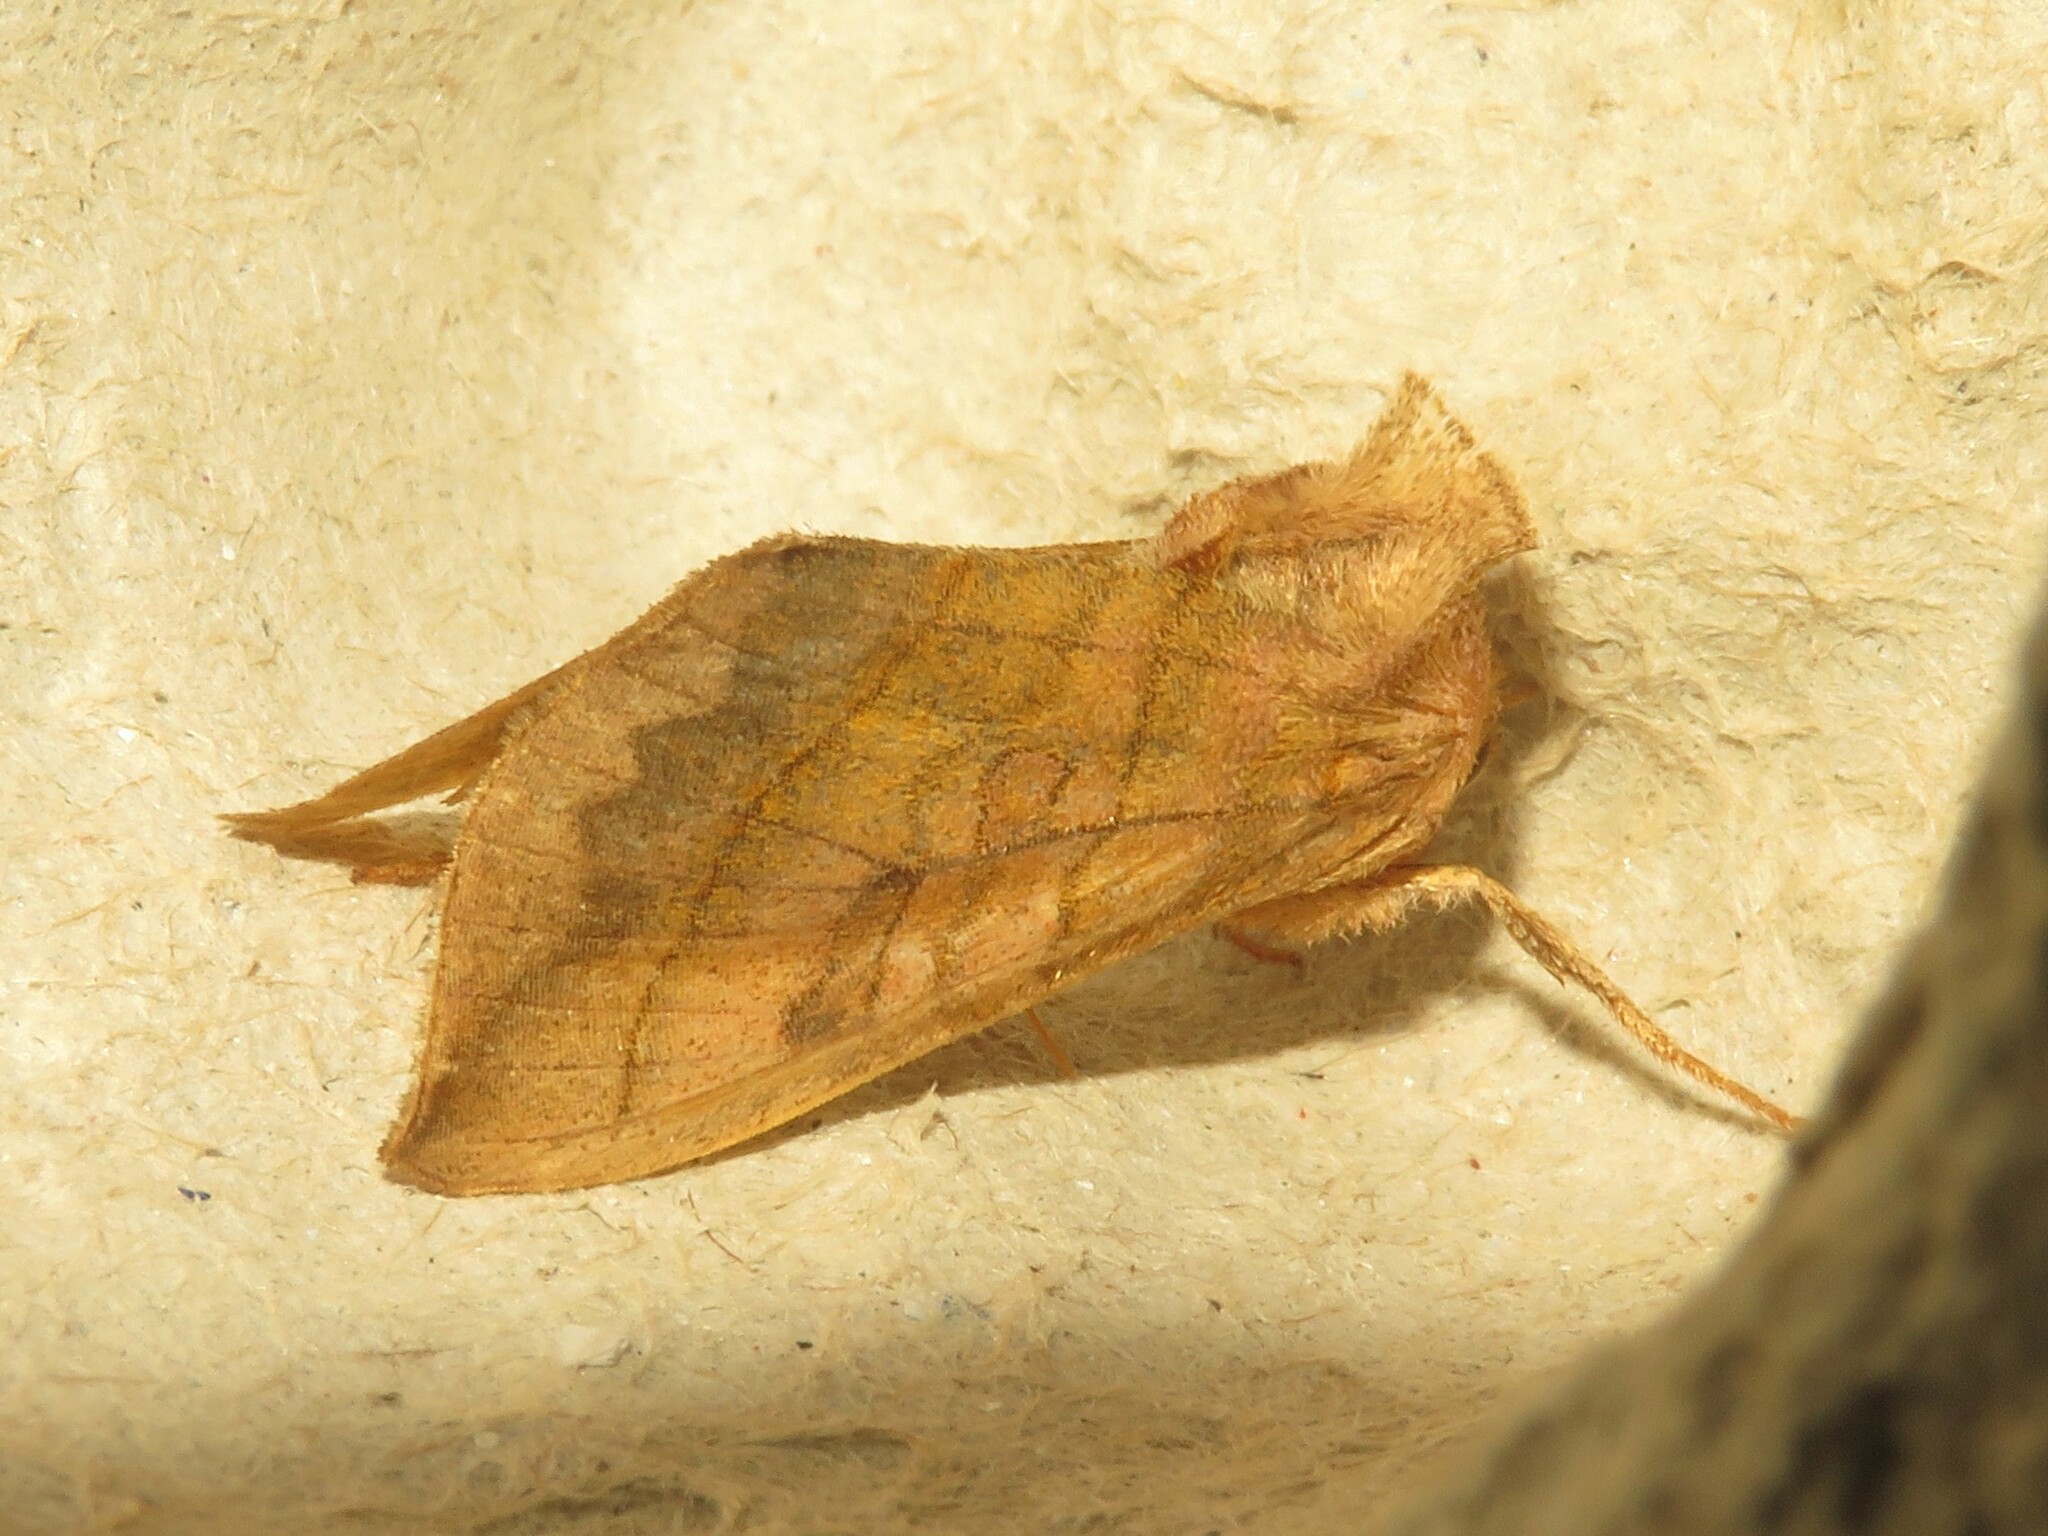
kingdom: Animalia
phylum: Arthropoda
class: Insecta
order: Lepidoptera
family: Noctuidae
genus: Diachrysia
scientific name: Diachrysia aereoides
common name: Dark-spotted looper moth
